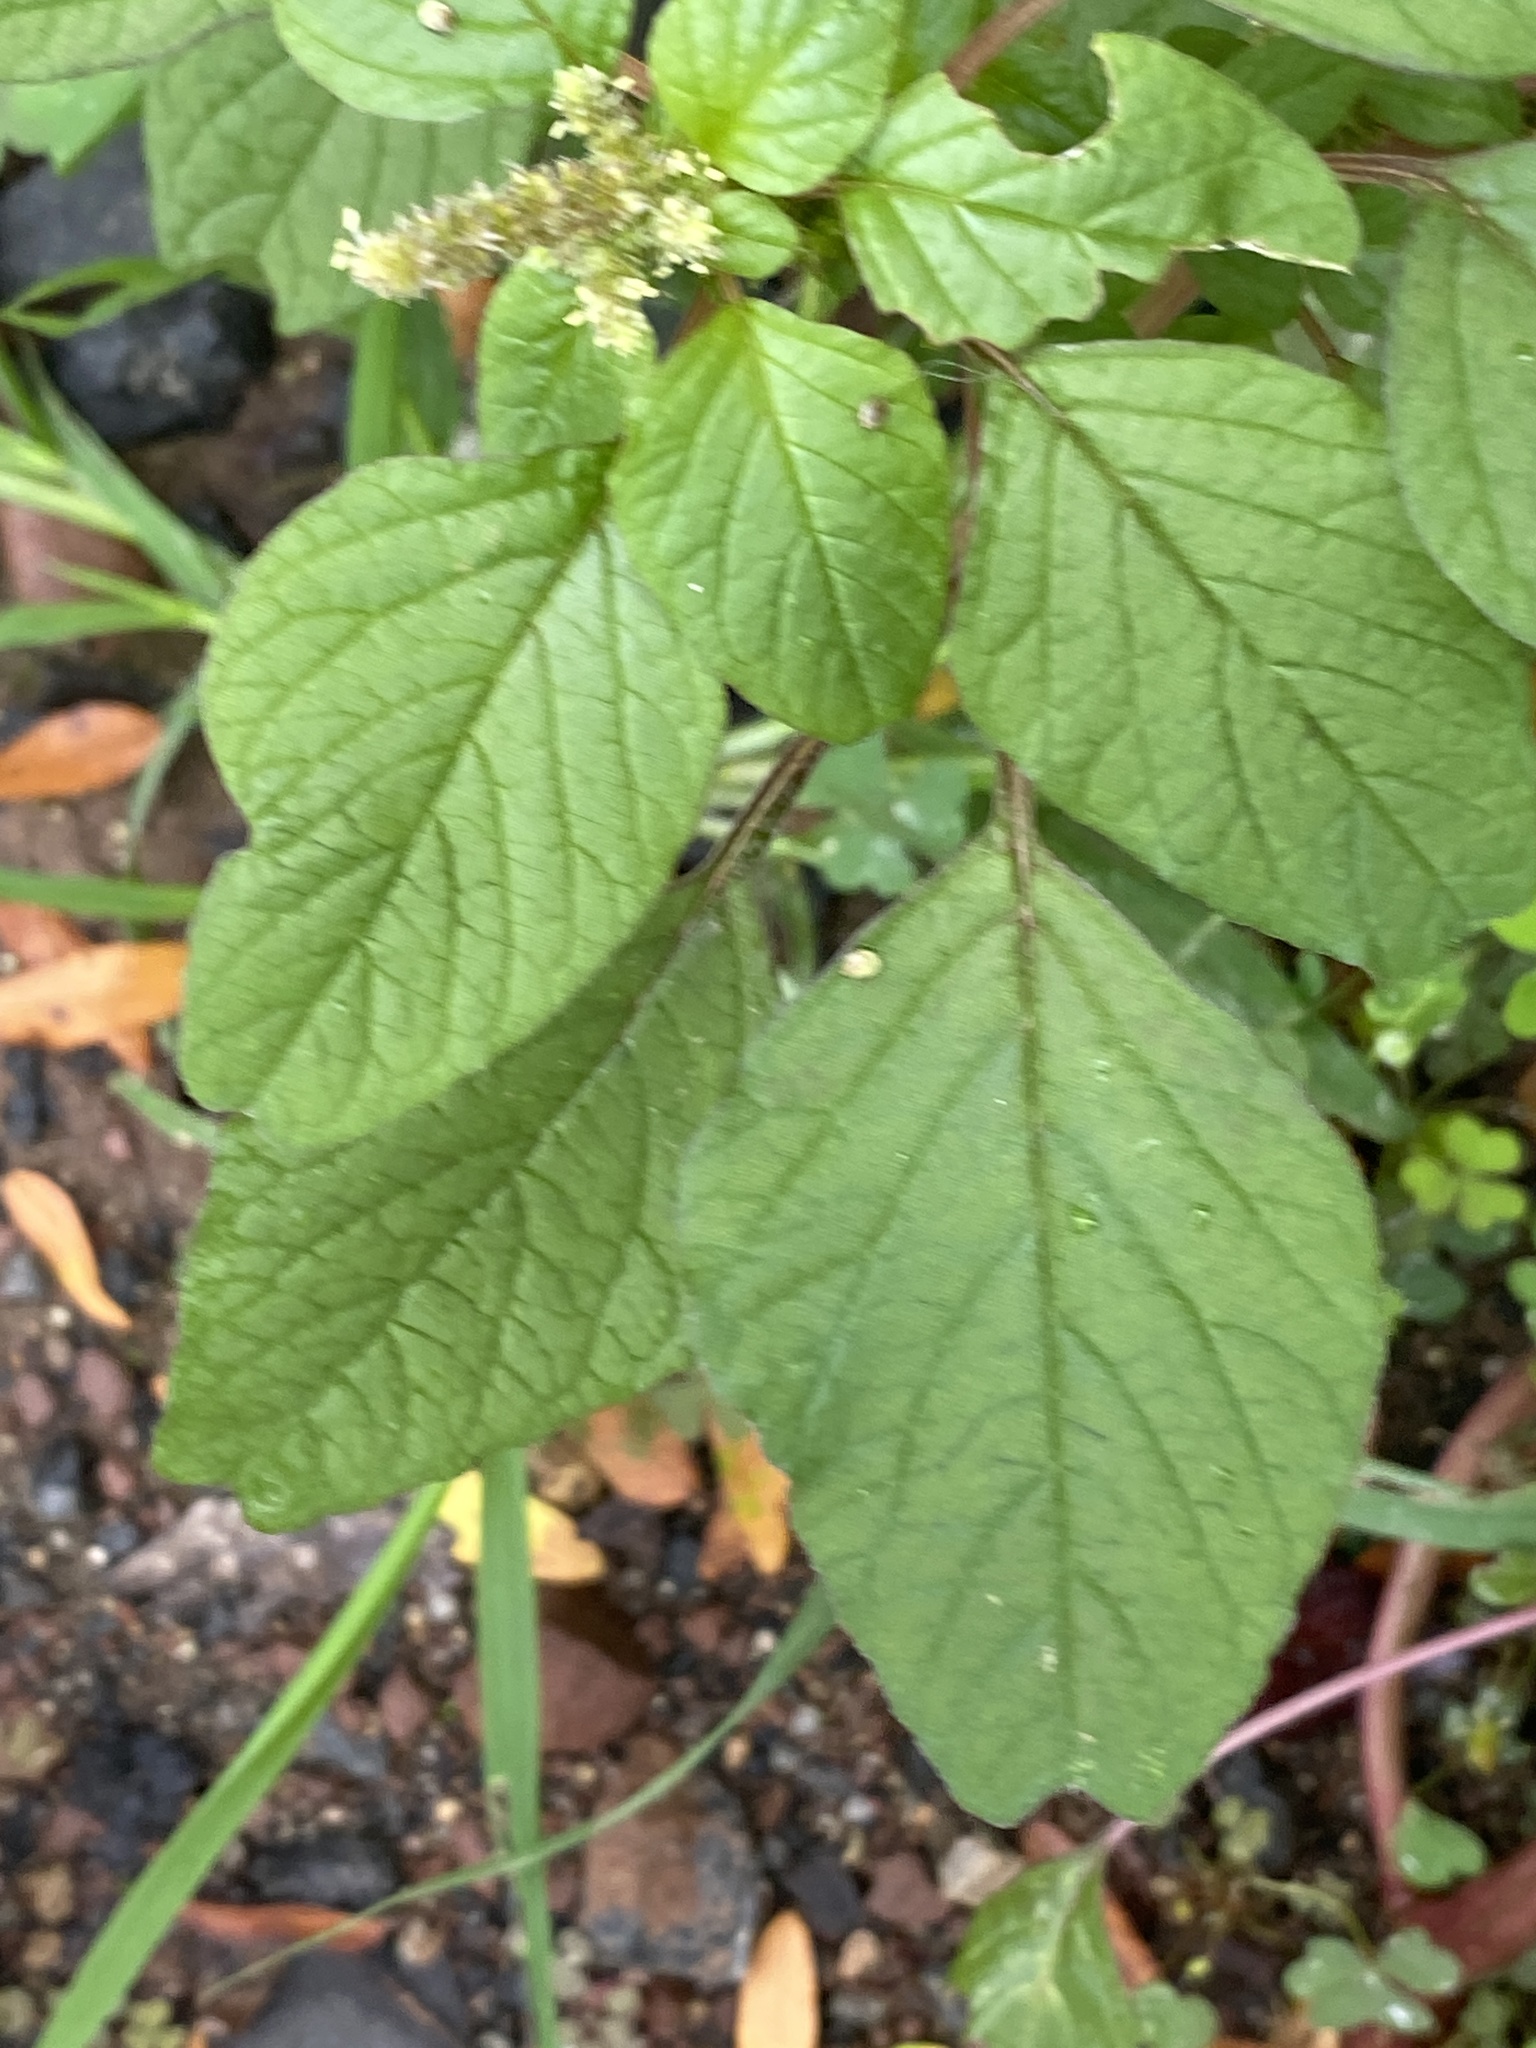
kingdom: Plantae
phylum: Tracheophyta
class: Magnoliopsida
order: Caryophyllales
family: Amaranthaceae
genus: Amaranthus
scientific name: Amaranthus blitum
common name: Purple amaranth
